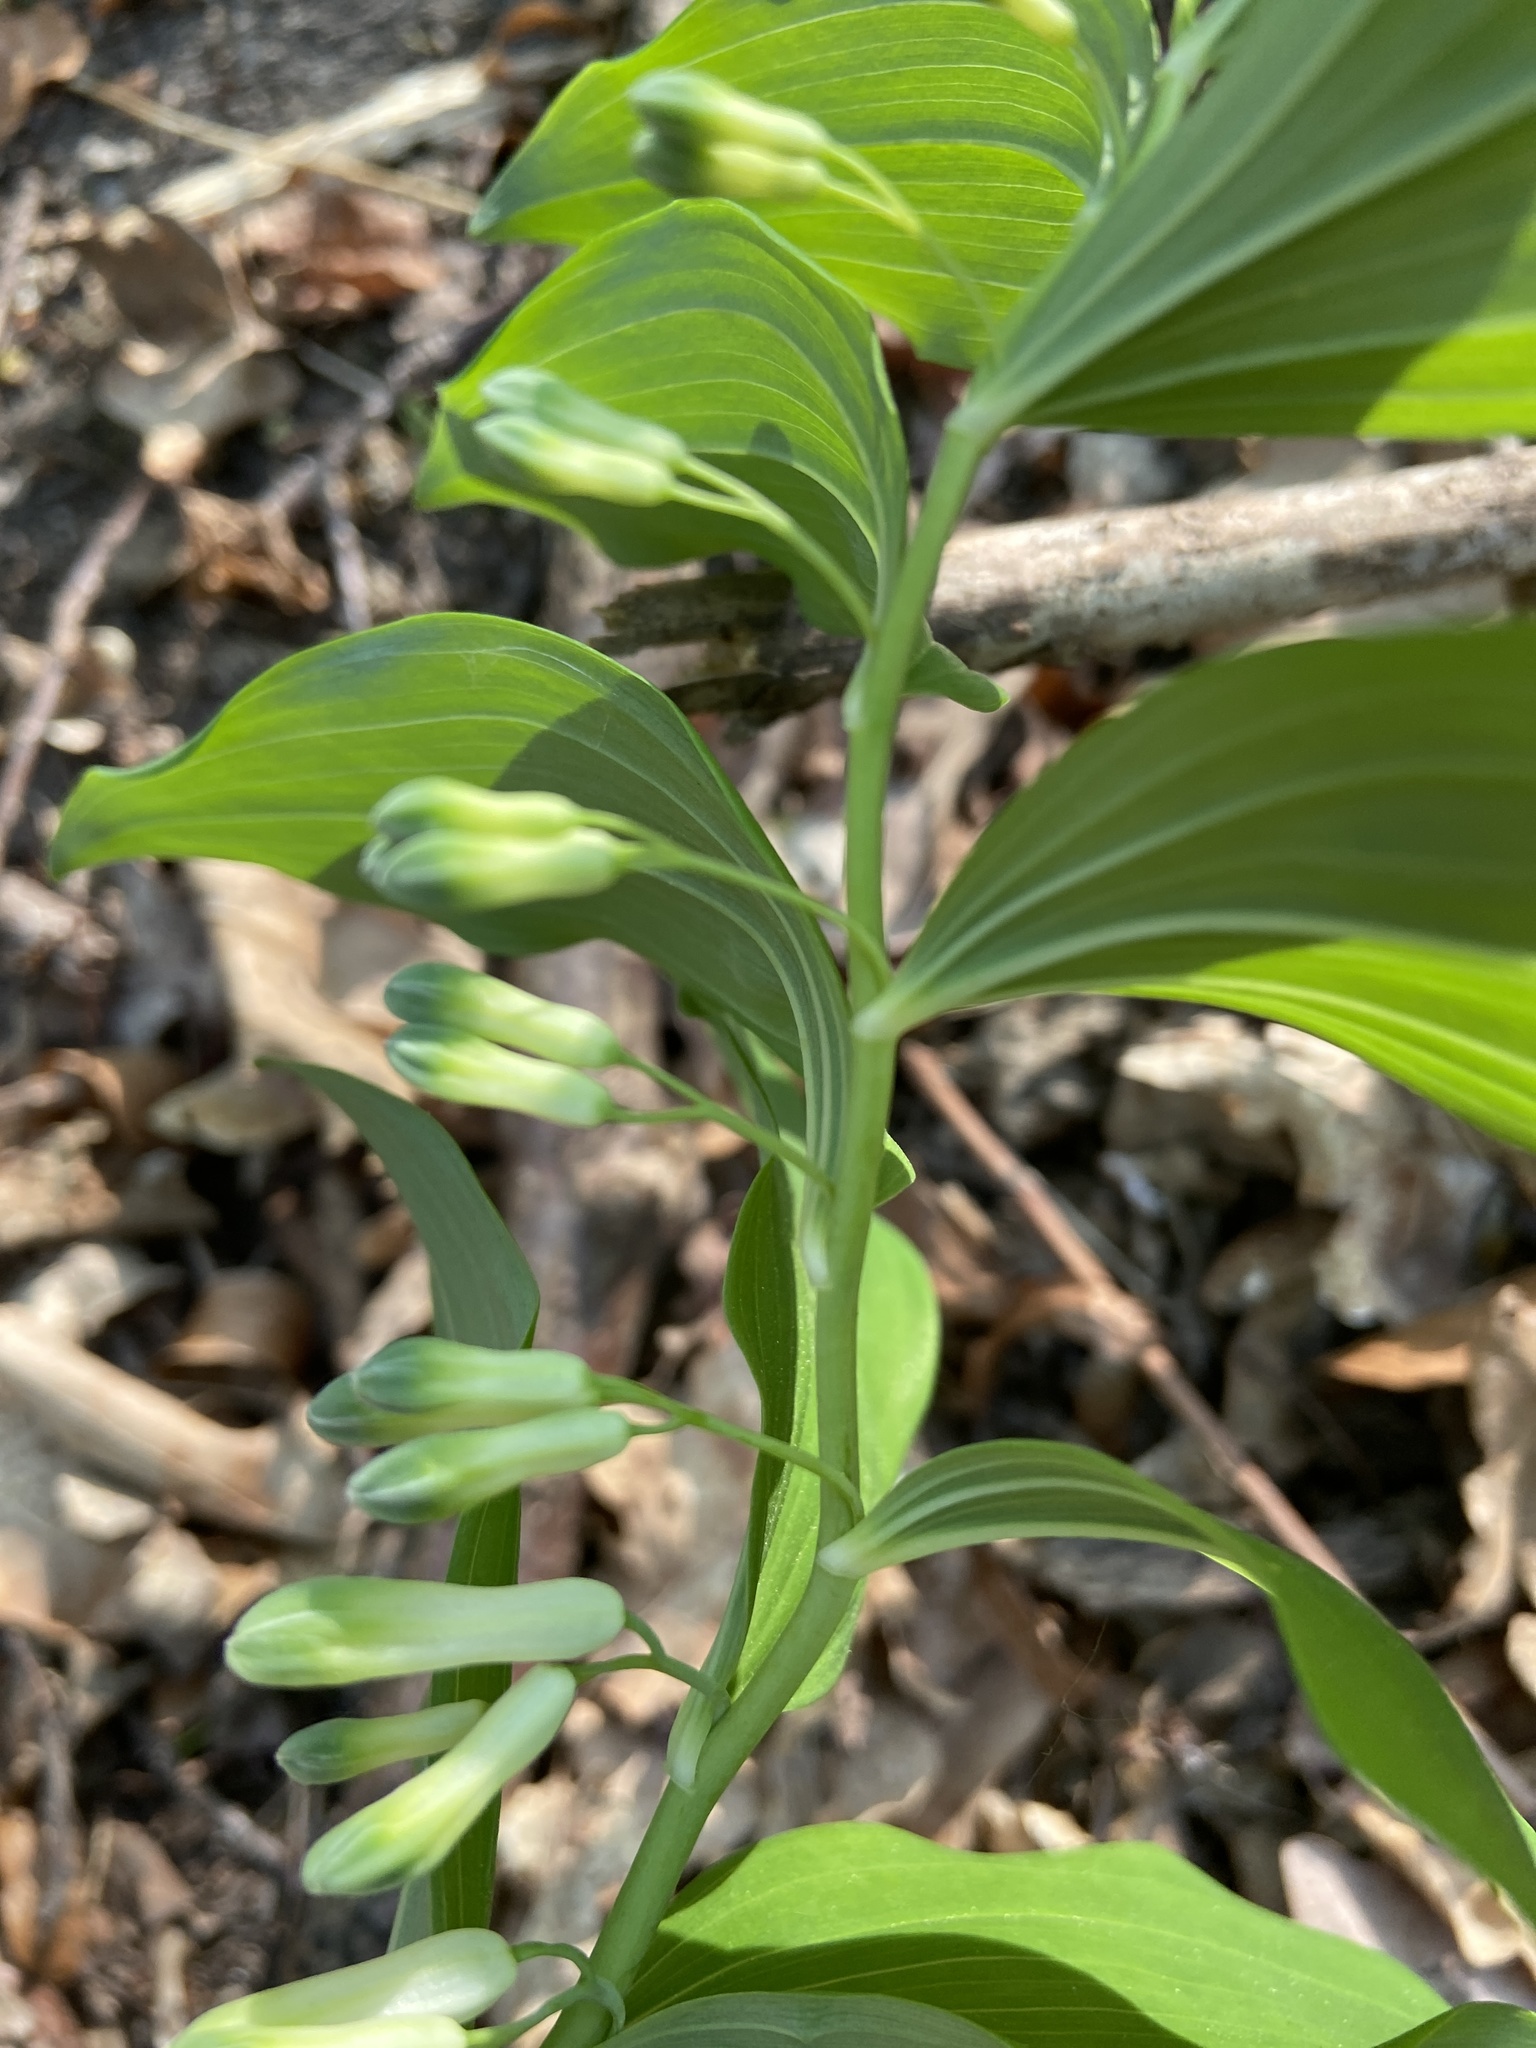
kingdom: Plantae
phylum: Tracheophyta
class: Liliopsida
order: Asparagales
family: Asparagaceae
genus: Polygonatum
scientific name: Polygonatum multiflorum
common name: Solomon's-seal
